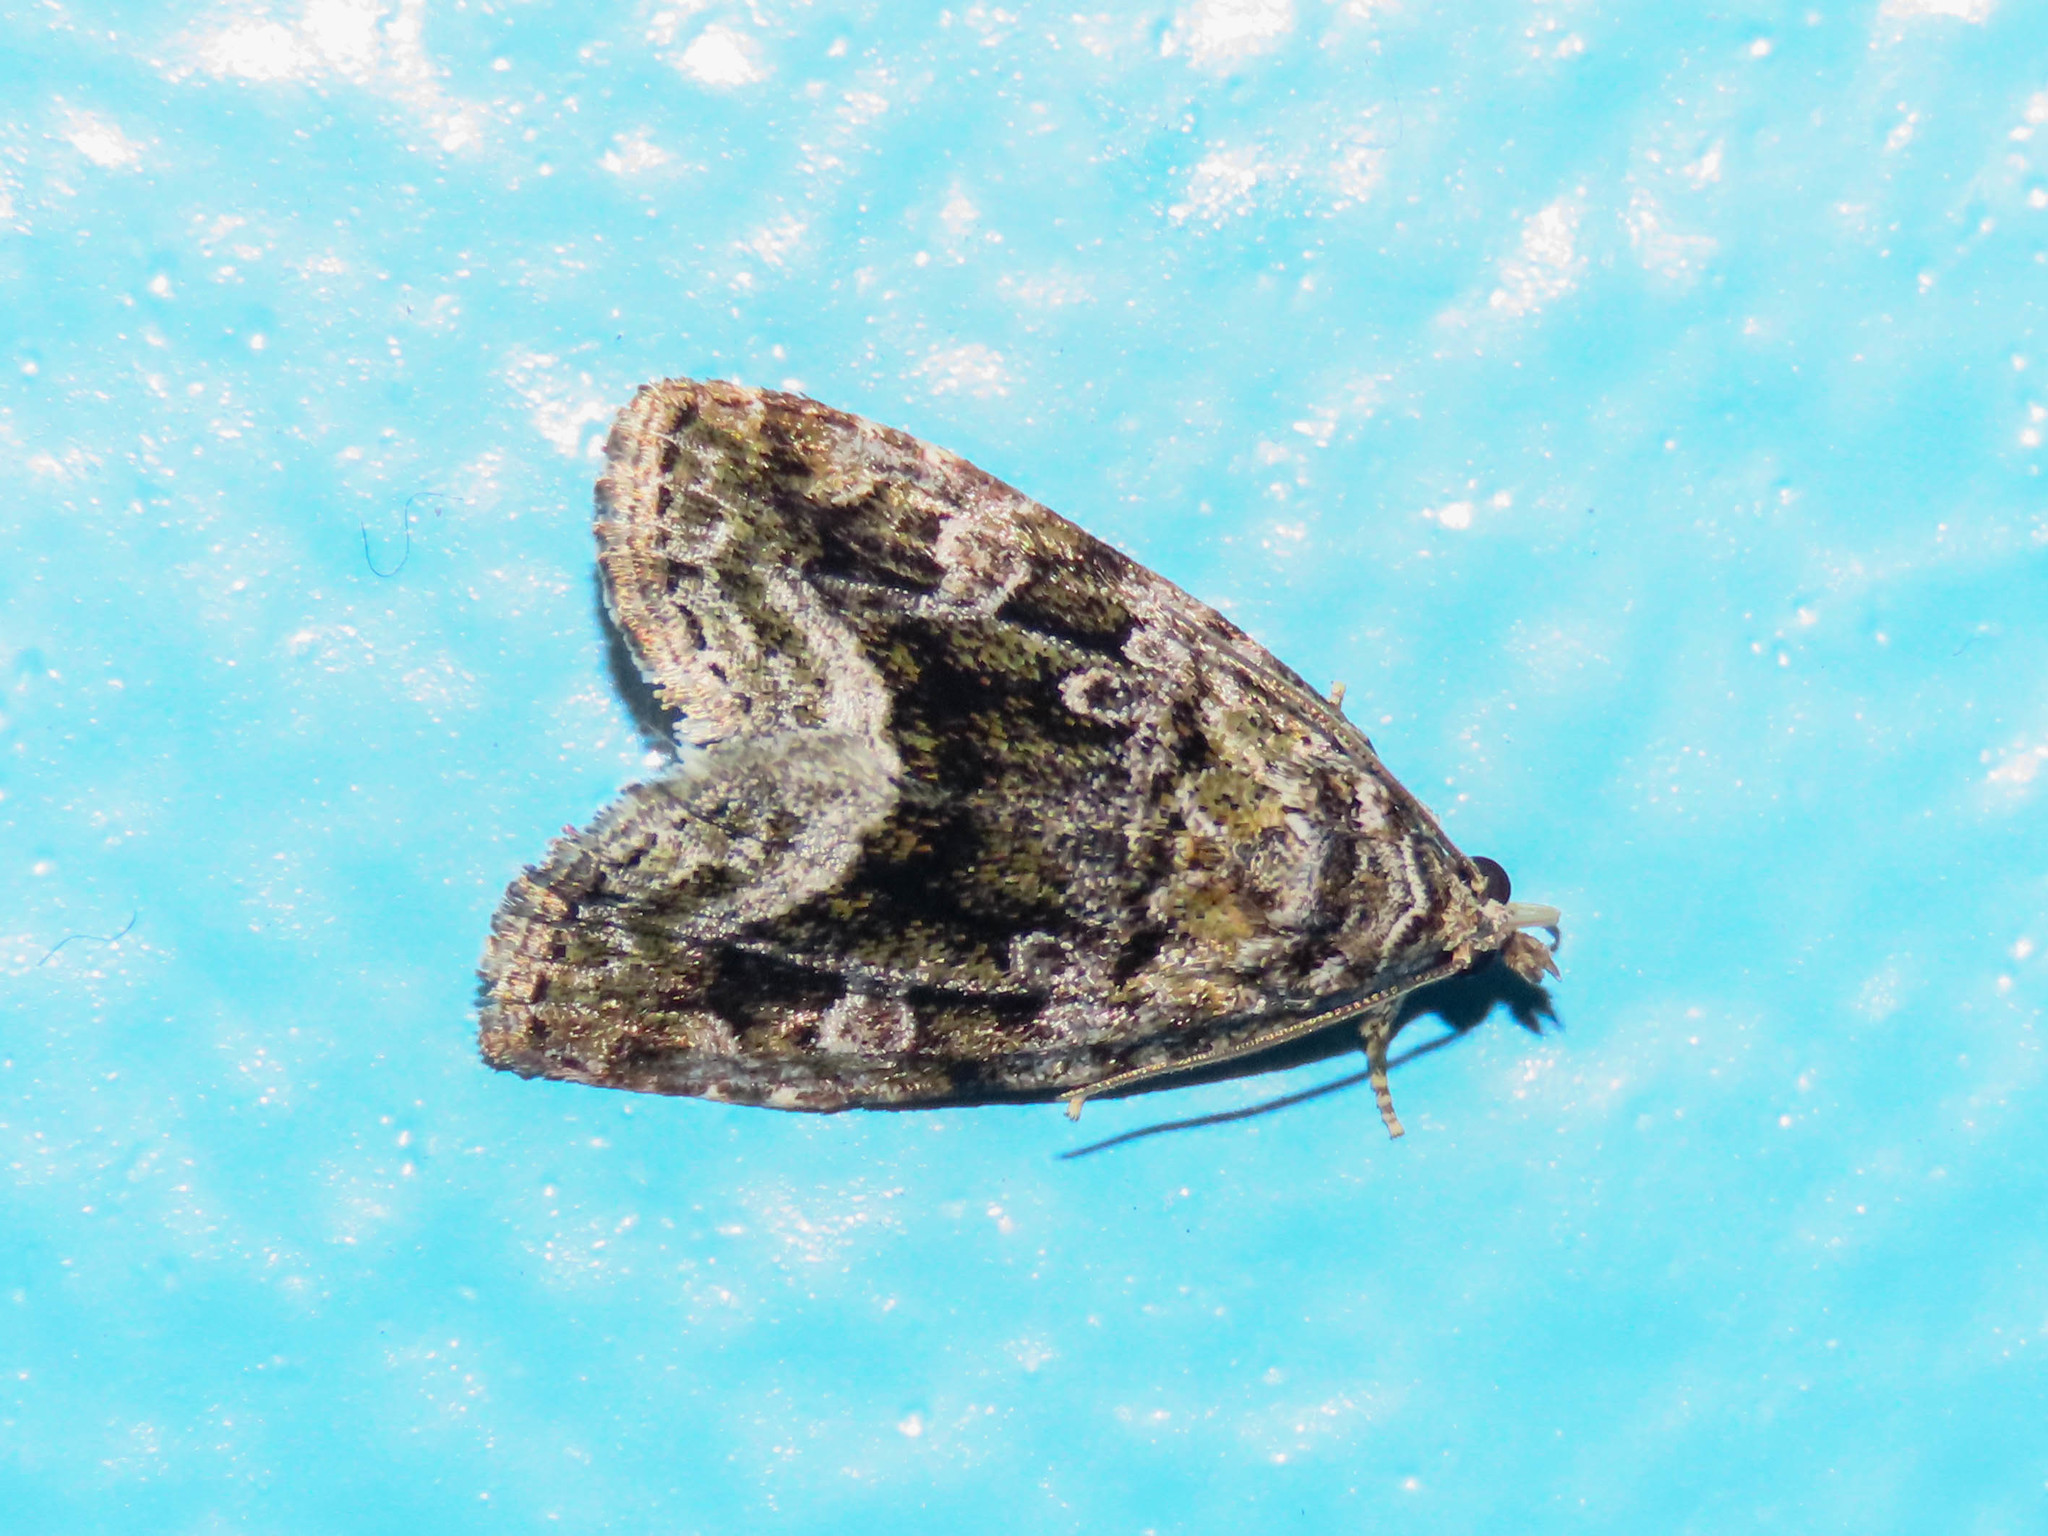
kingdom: Animalia
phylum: Arthropoda
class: Insecta
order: Lepidoptera
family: Noctuidae
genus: Protodeltote
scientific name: Protodeltote muscosula
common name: Large mossy glyph
